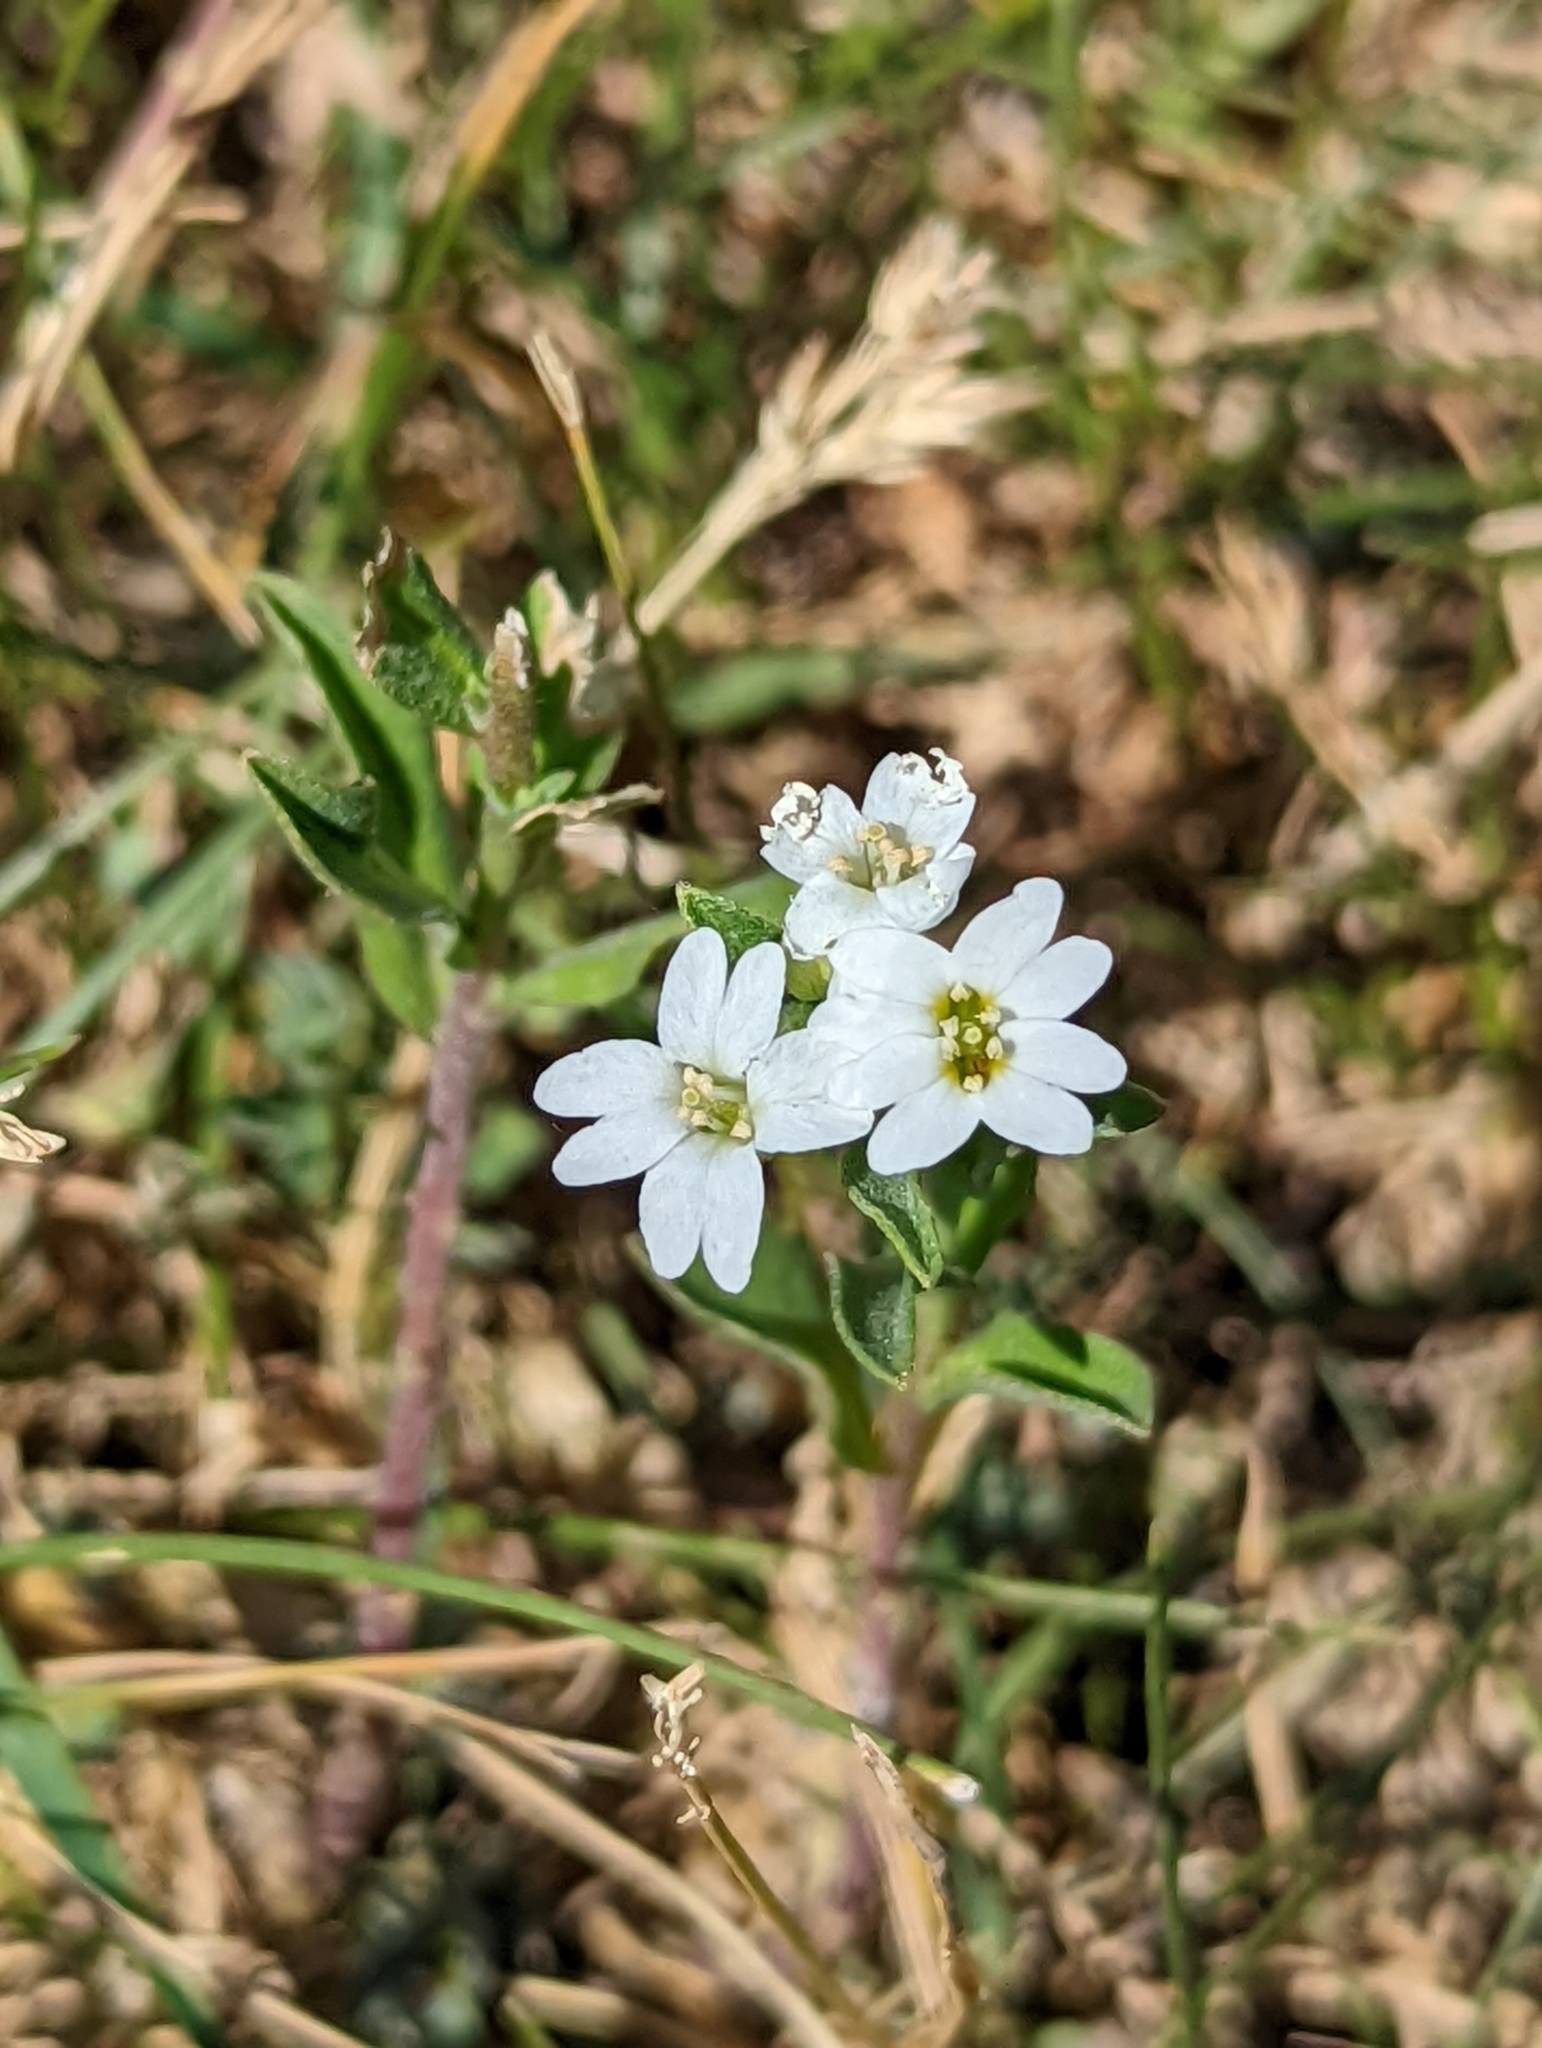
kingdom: Plantae
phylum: Tracheophyta
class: Magnoliopsida
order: Brassicales
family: Brassicaceae
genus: Berteroa
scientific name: Berteroa incana
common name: Hoary alison
